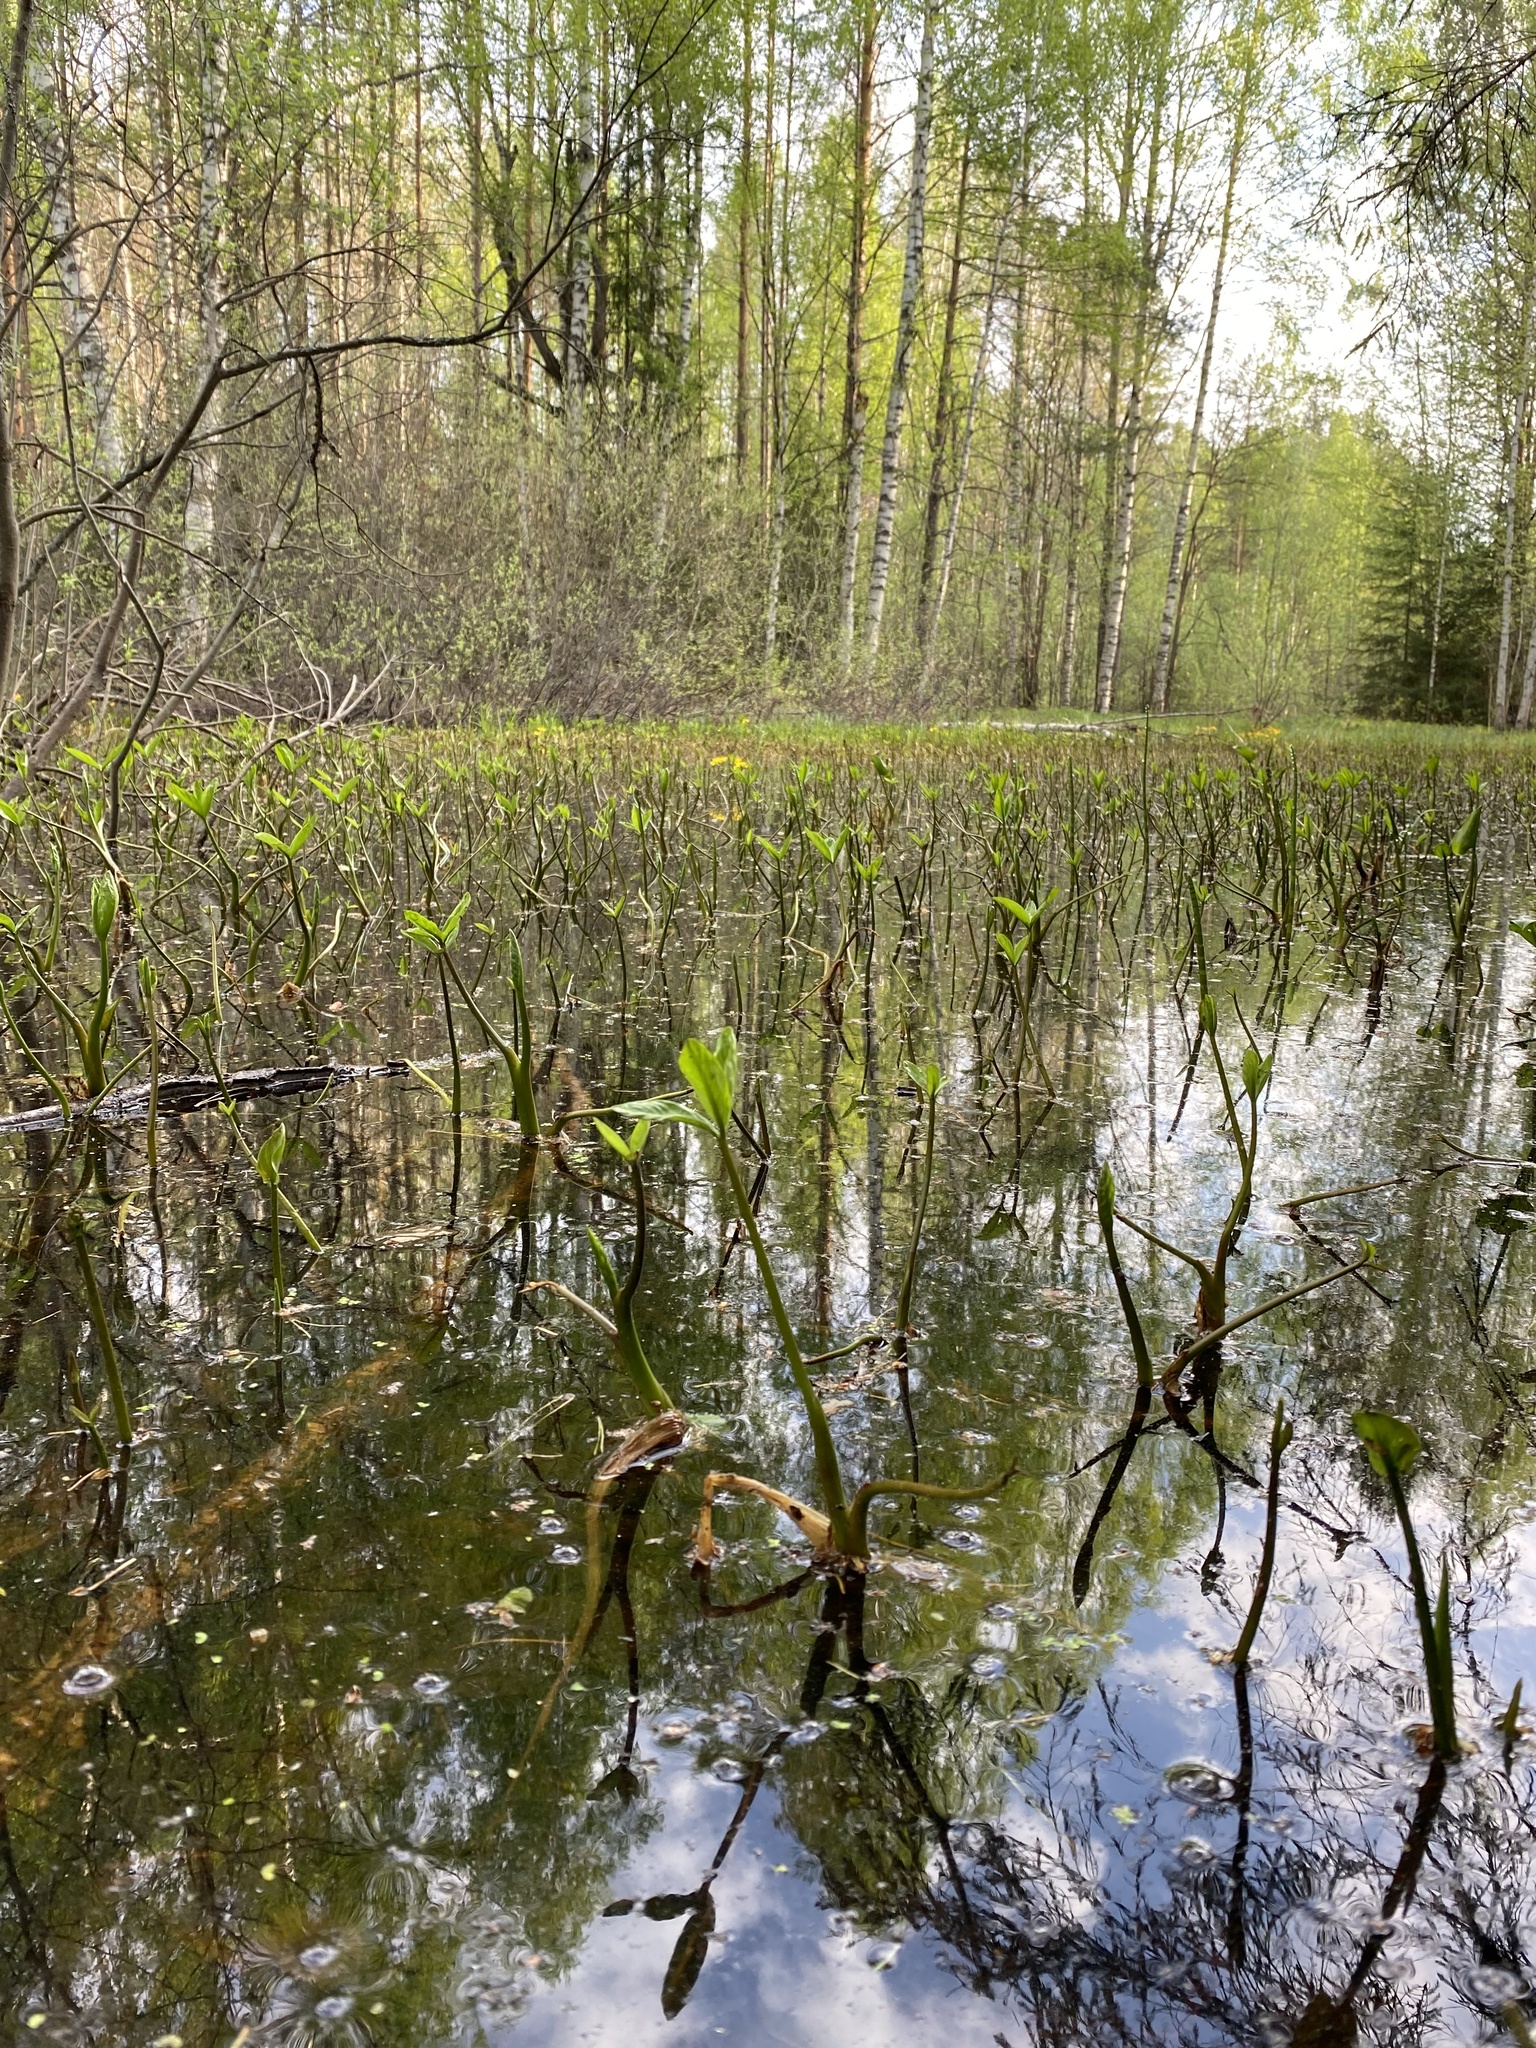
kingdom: Plantae
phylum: Tracheophyta
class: Magnoliopsida
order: Asterales
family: Menyanthaceae
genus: Menyanthes
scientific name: Menyanthes trifoliata
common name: Bogbean
